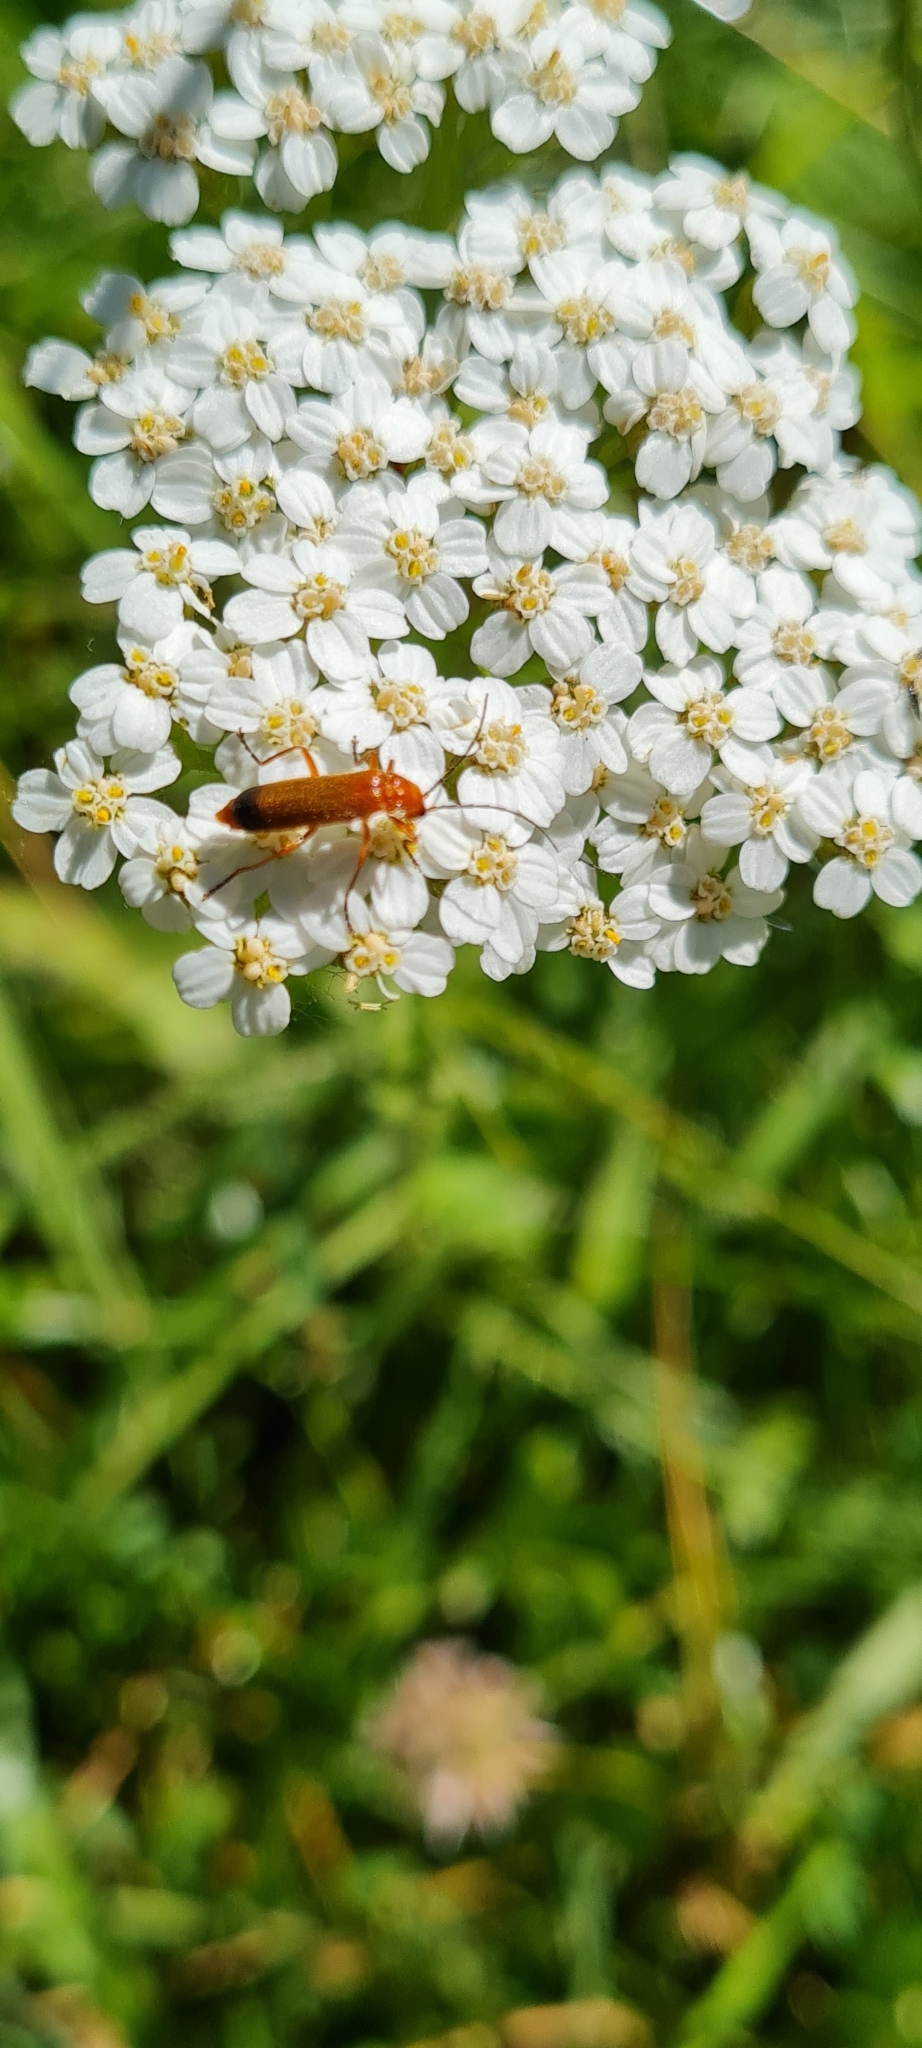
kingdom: Animalia
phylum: Arthropoda
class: Insecta
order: Coleoptera
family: Cantharidae
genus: Rhagonycha
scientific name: Rhagonycha fulva
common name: Common red soldier beetle
